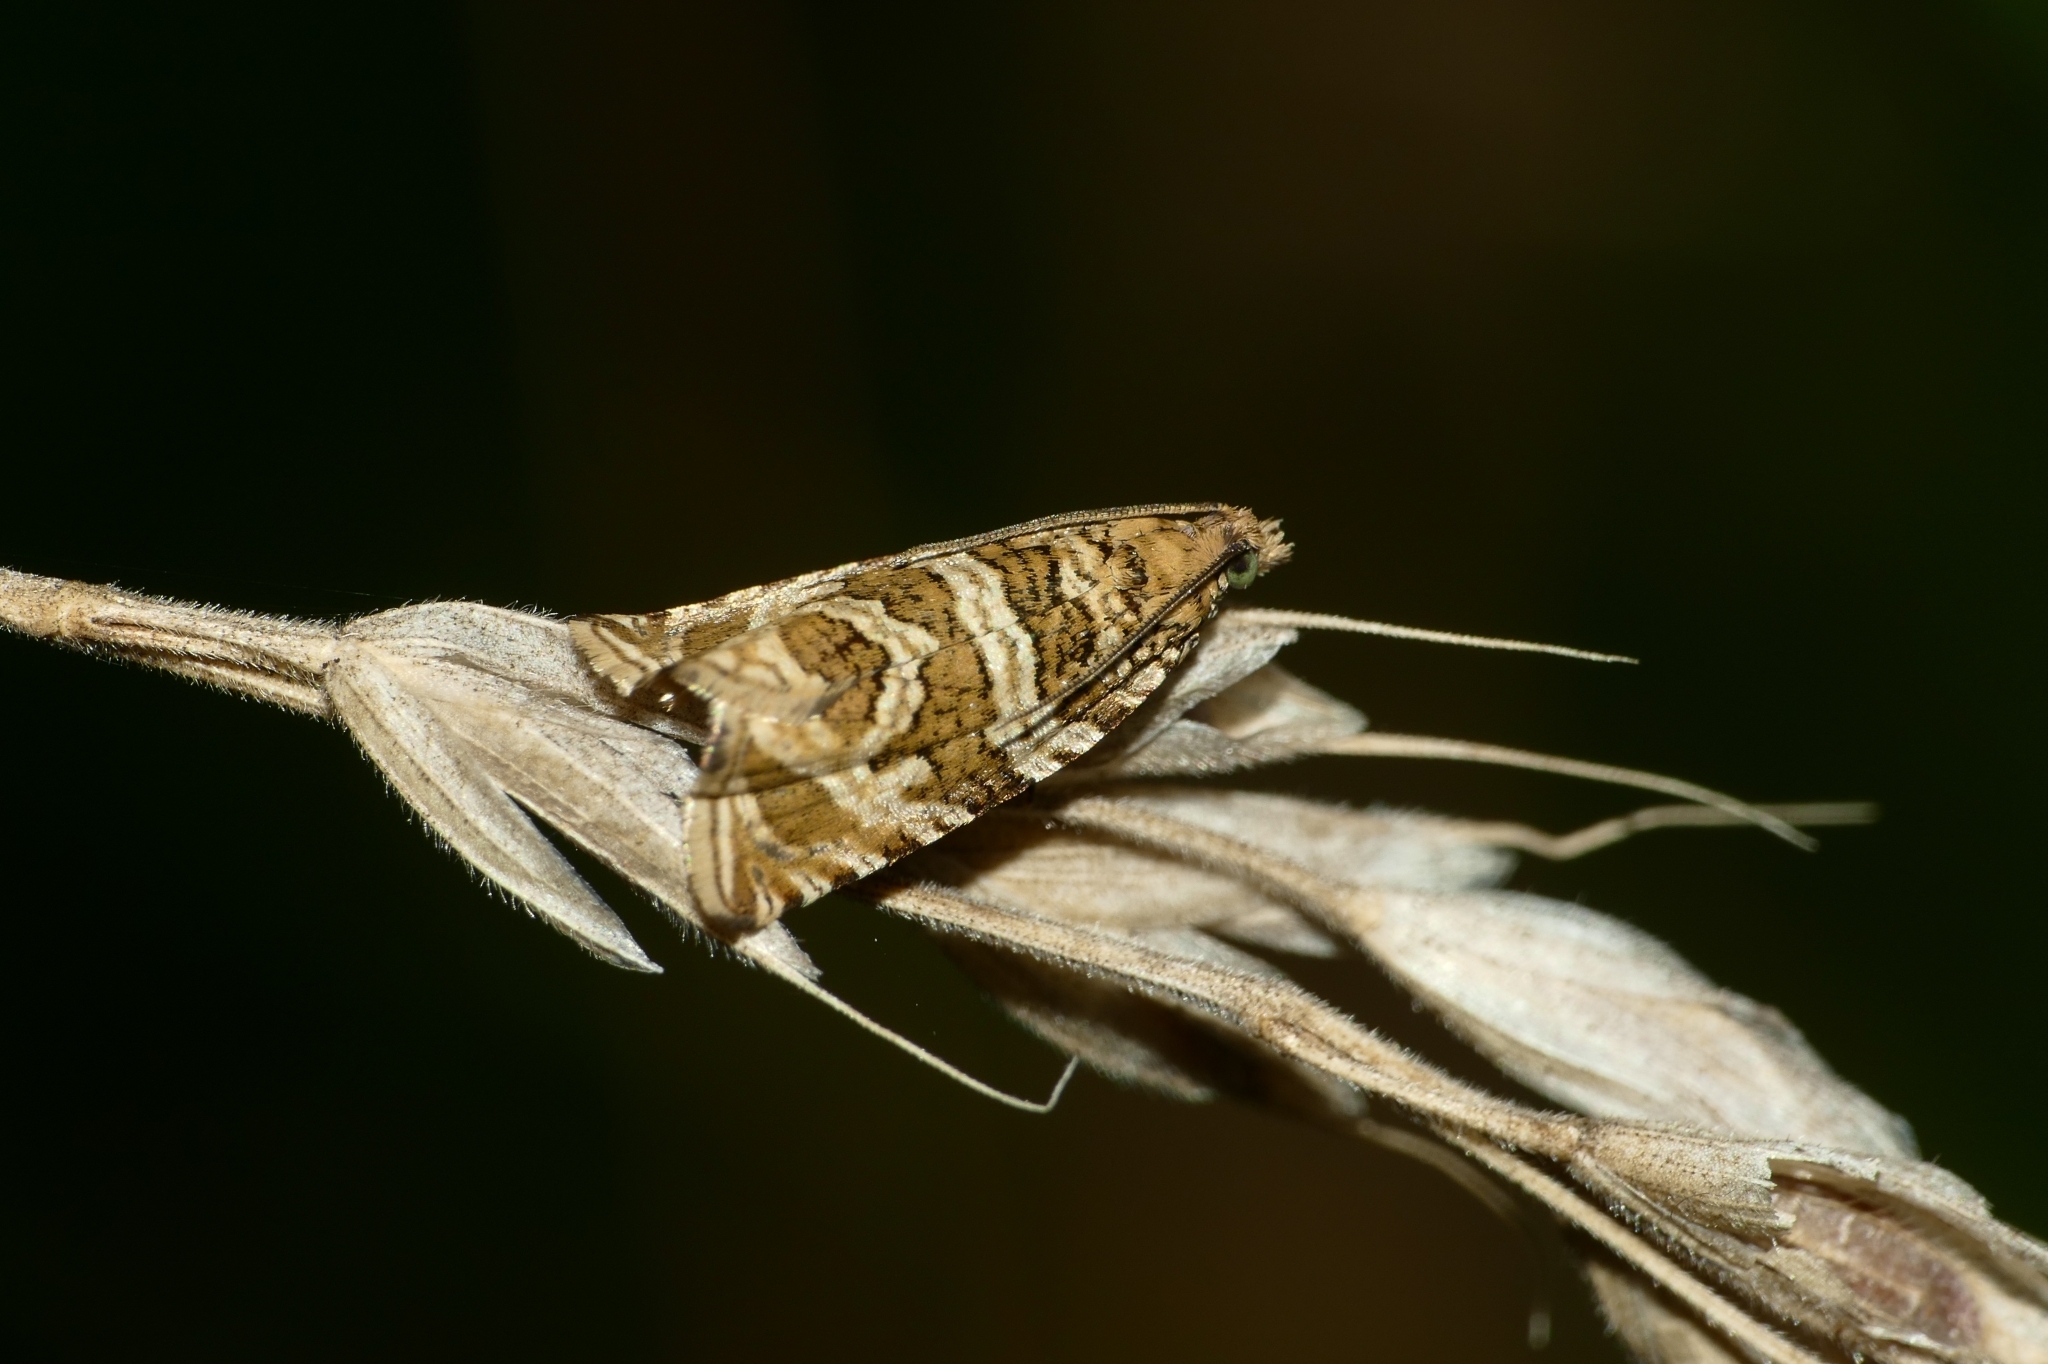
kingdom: Animalia
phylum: Arthropoda
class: Insecta
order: Lepidoptera
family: Tortricidae
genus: Syricoris
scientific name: Syricoris rivulana
